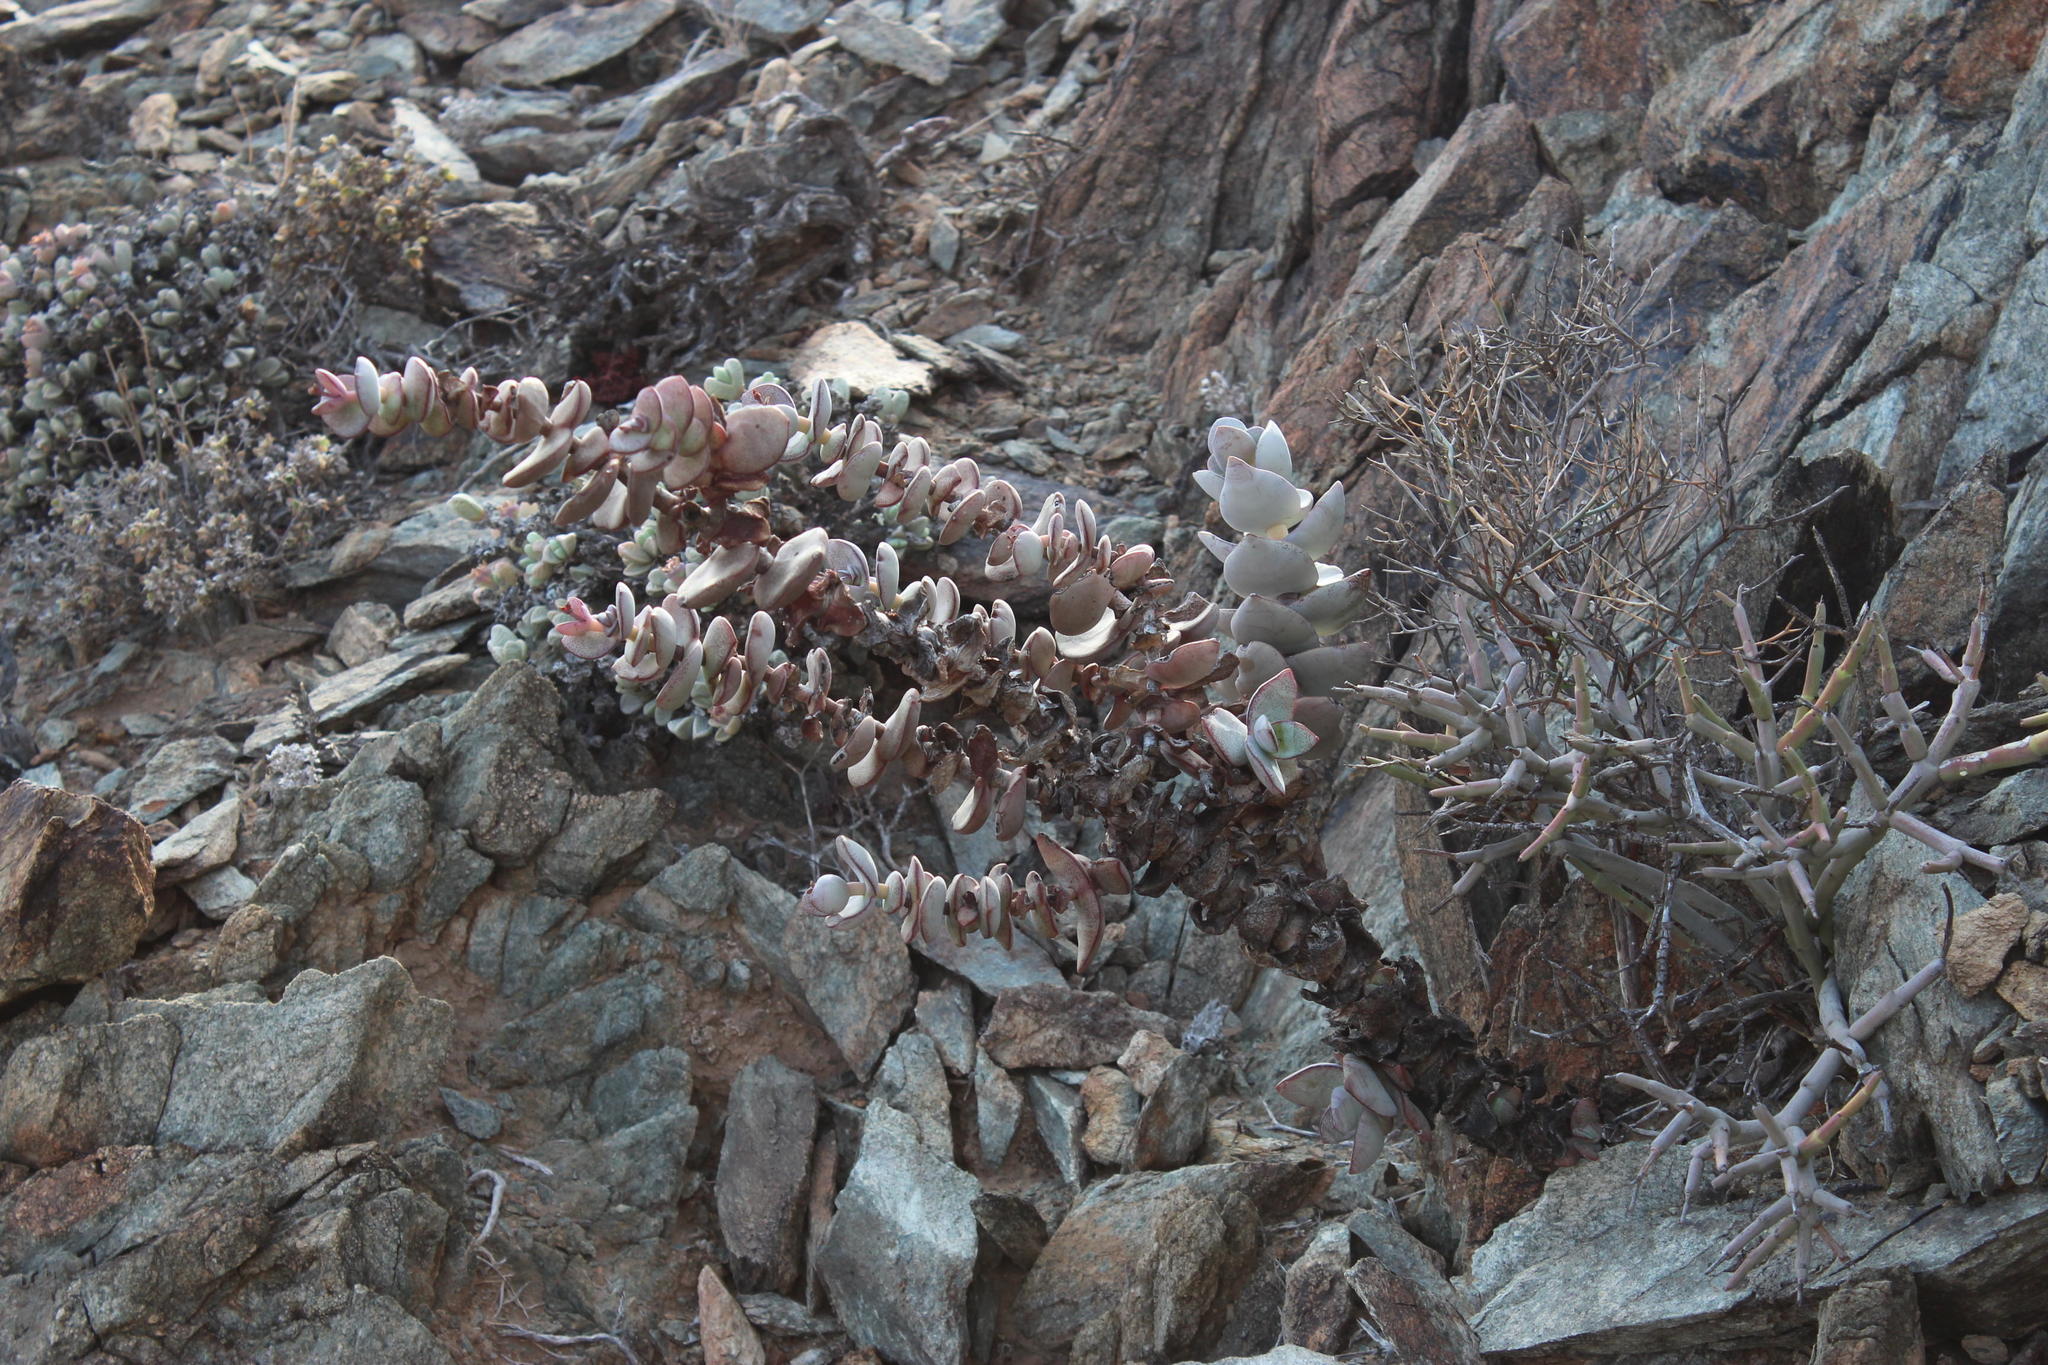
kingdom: Plantae
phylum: Tracheophyta
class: Magnoliopsida
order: Saxifragales
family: Crassulaceae
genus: Crassula
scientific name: Crassula sladenii
